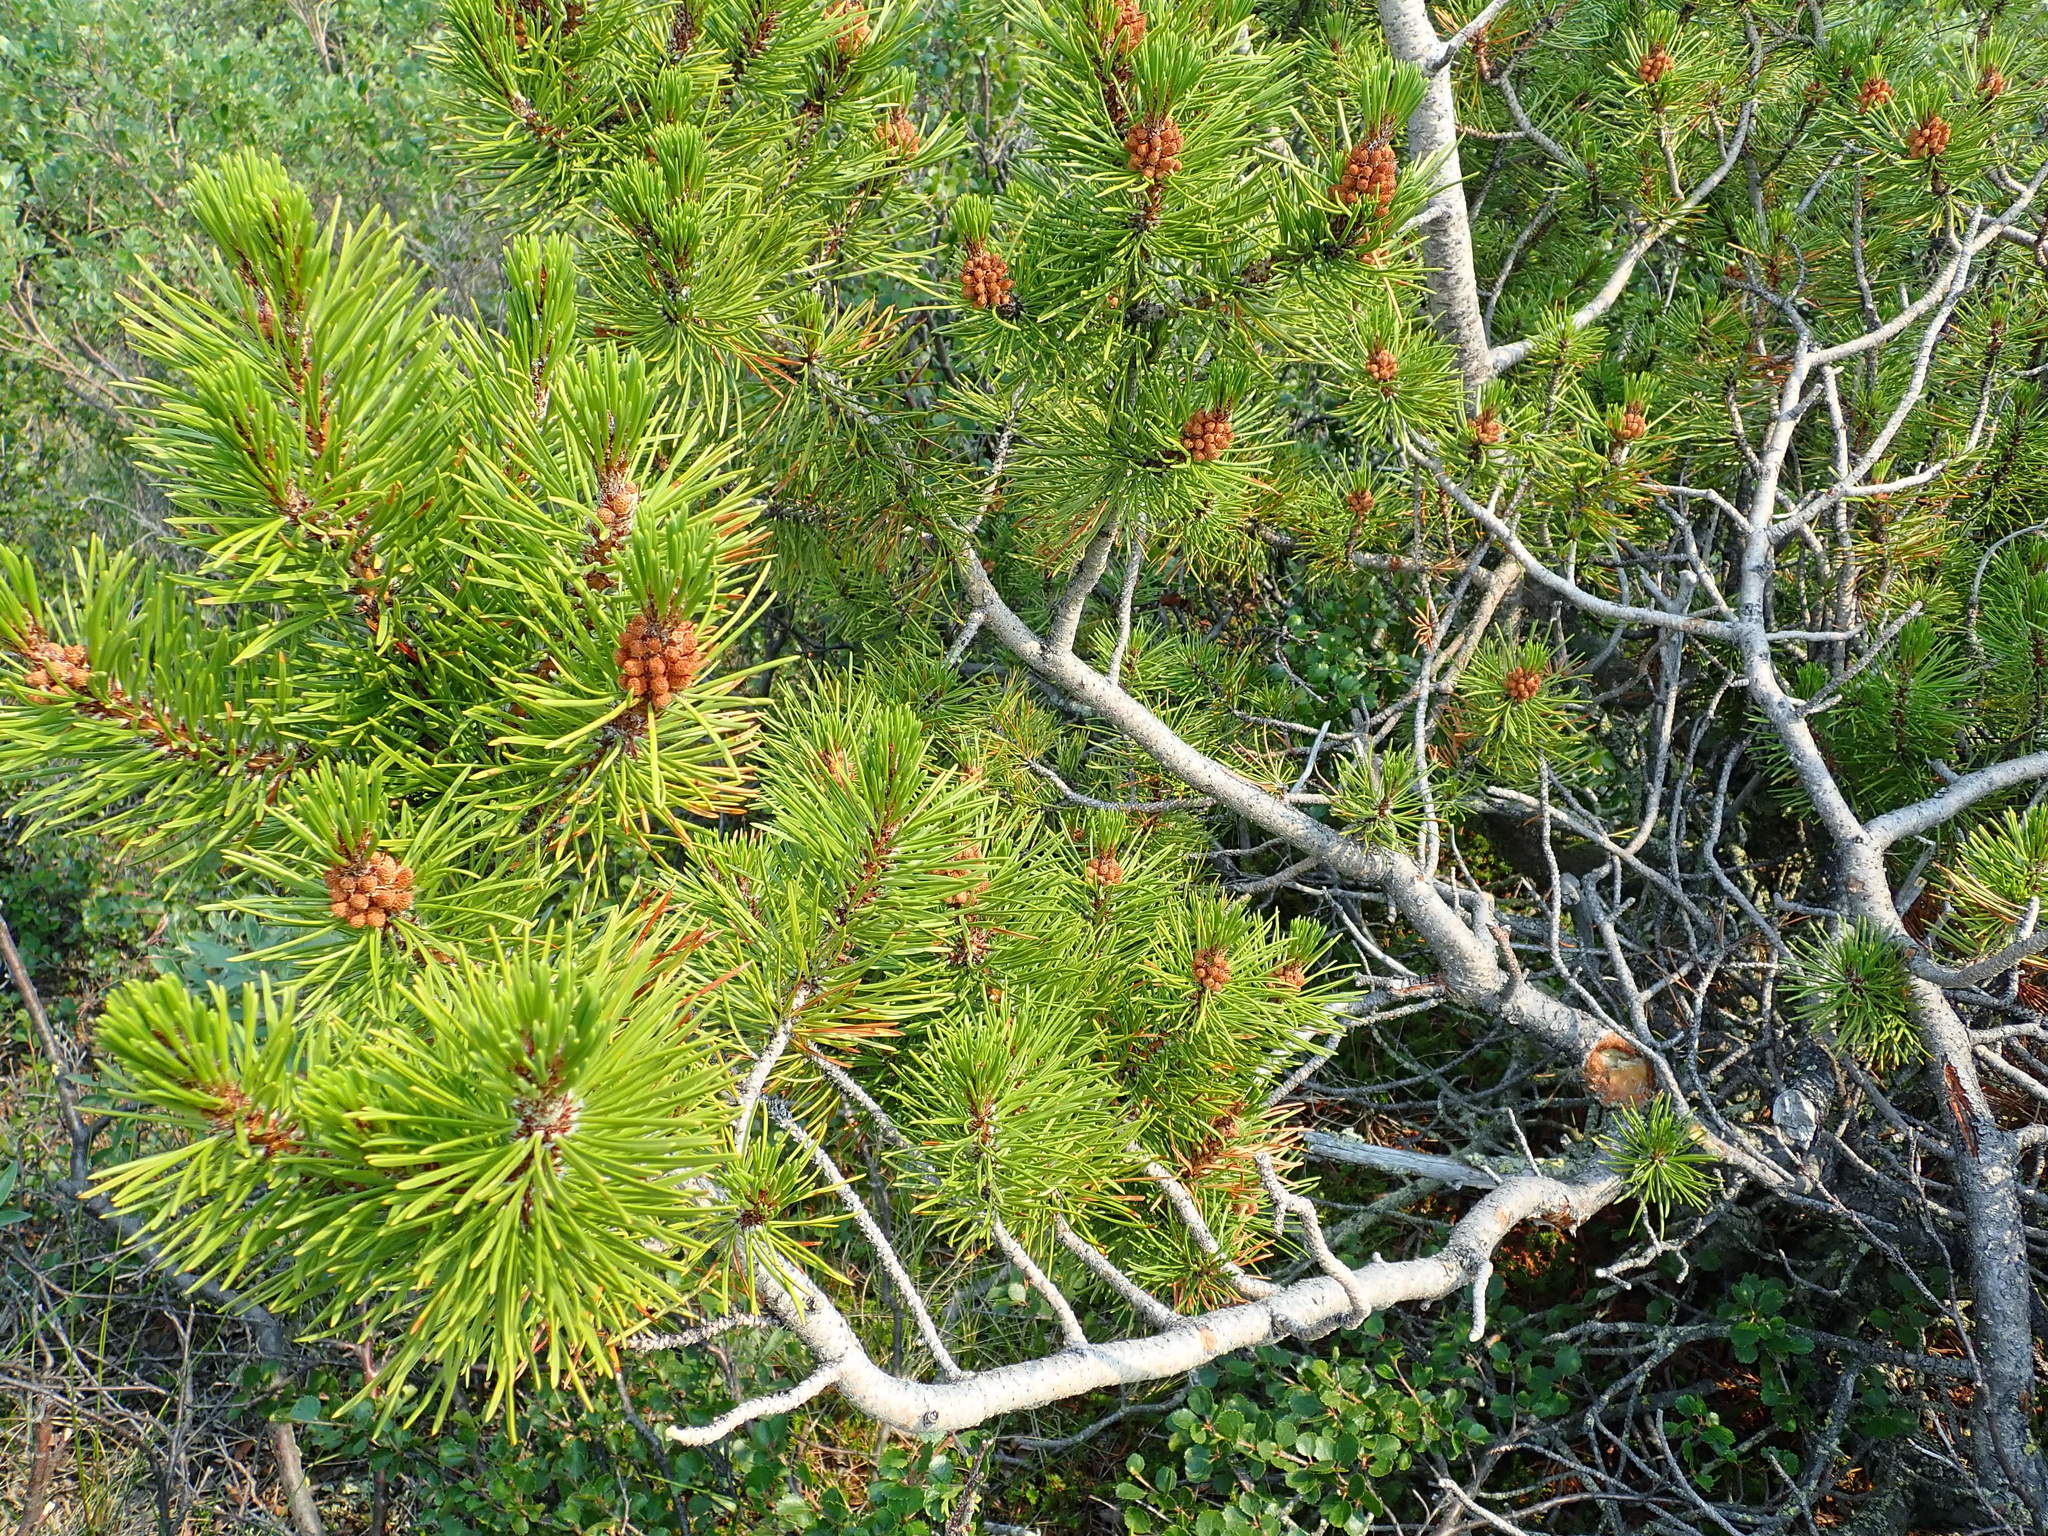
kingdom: Plantae
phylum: Tracheophyta
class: Pinopsida
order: Pinales
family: Pinaceae
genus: Pinus
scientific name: Pinus contorta
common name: Lodgepole pine
